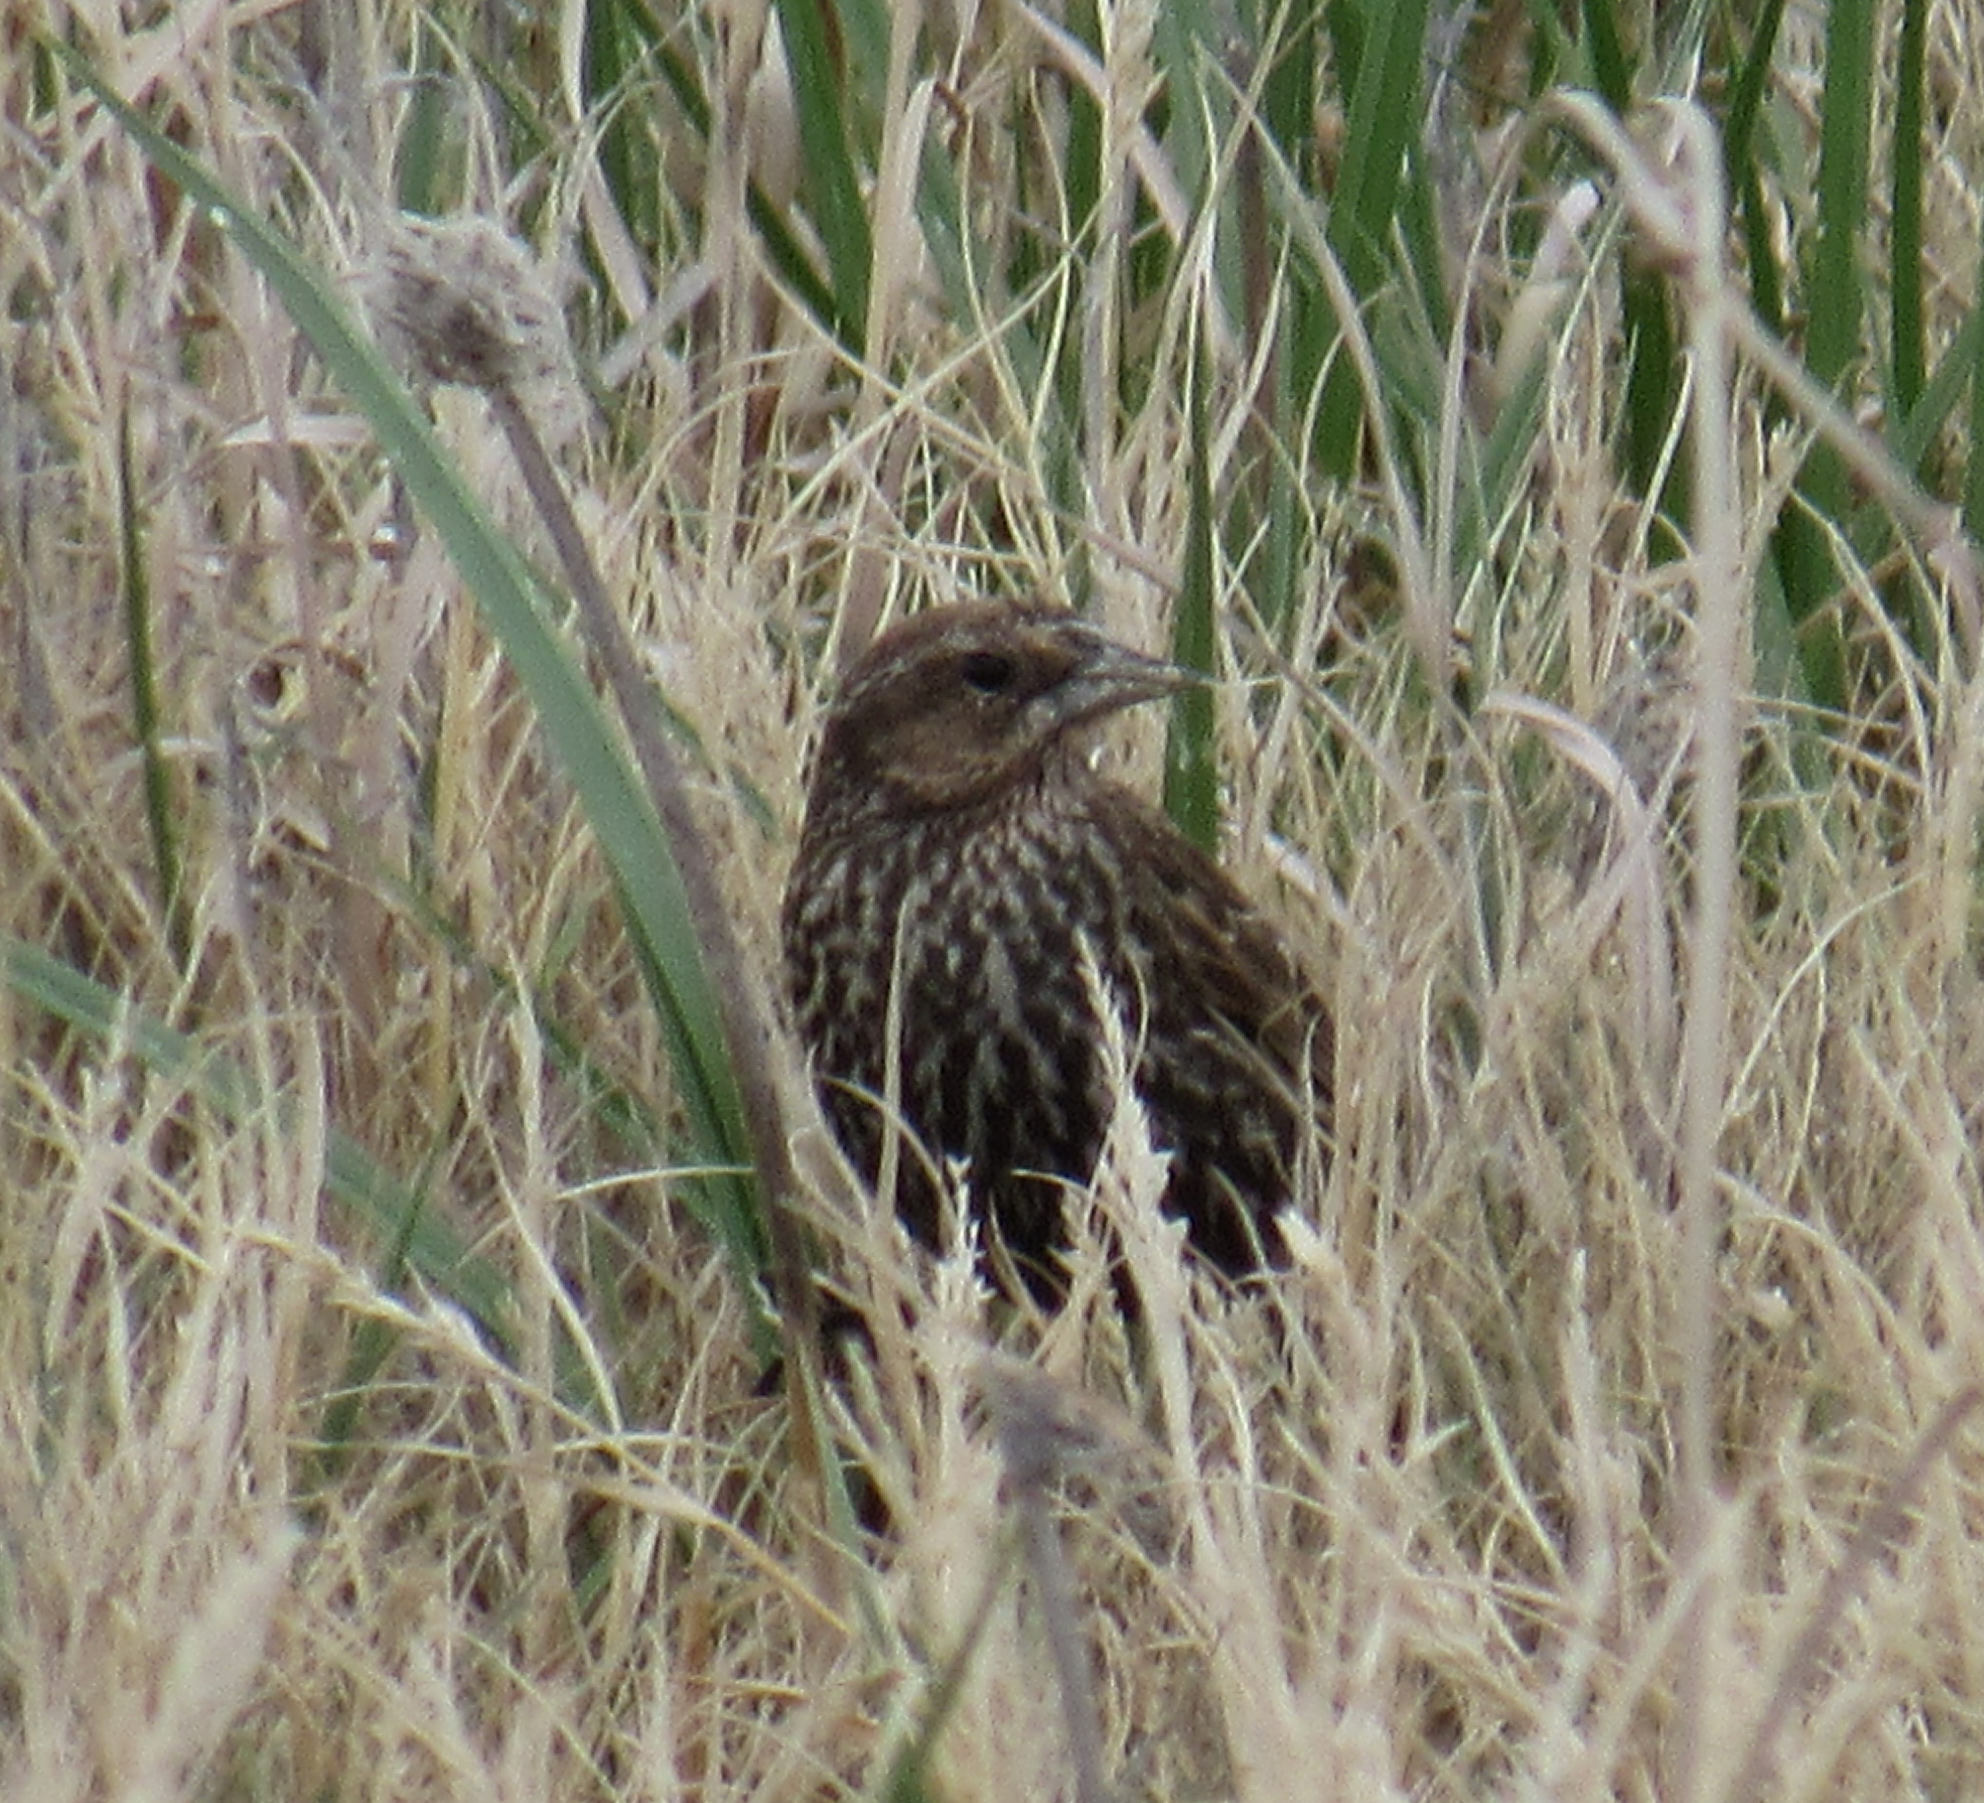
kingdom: Animalia
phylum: Chordata
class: Aves
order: Passeriformes
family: Icteridae
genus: Agelaius
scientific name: Agelaius phoeniceus
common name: Red-winged blackbird
